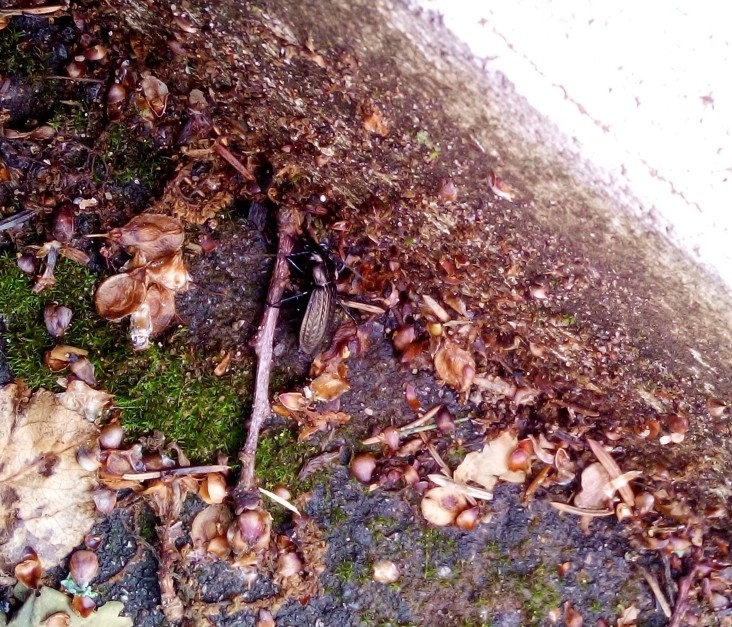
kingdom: Animalia
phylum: Arthropoda
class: Insecta
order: Coleoptera
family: Carabidae
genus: Carabus
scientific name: Carabus granulatus
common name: Granulate ground beetle
